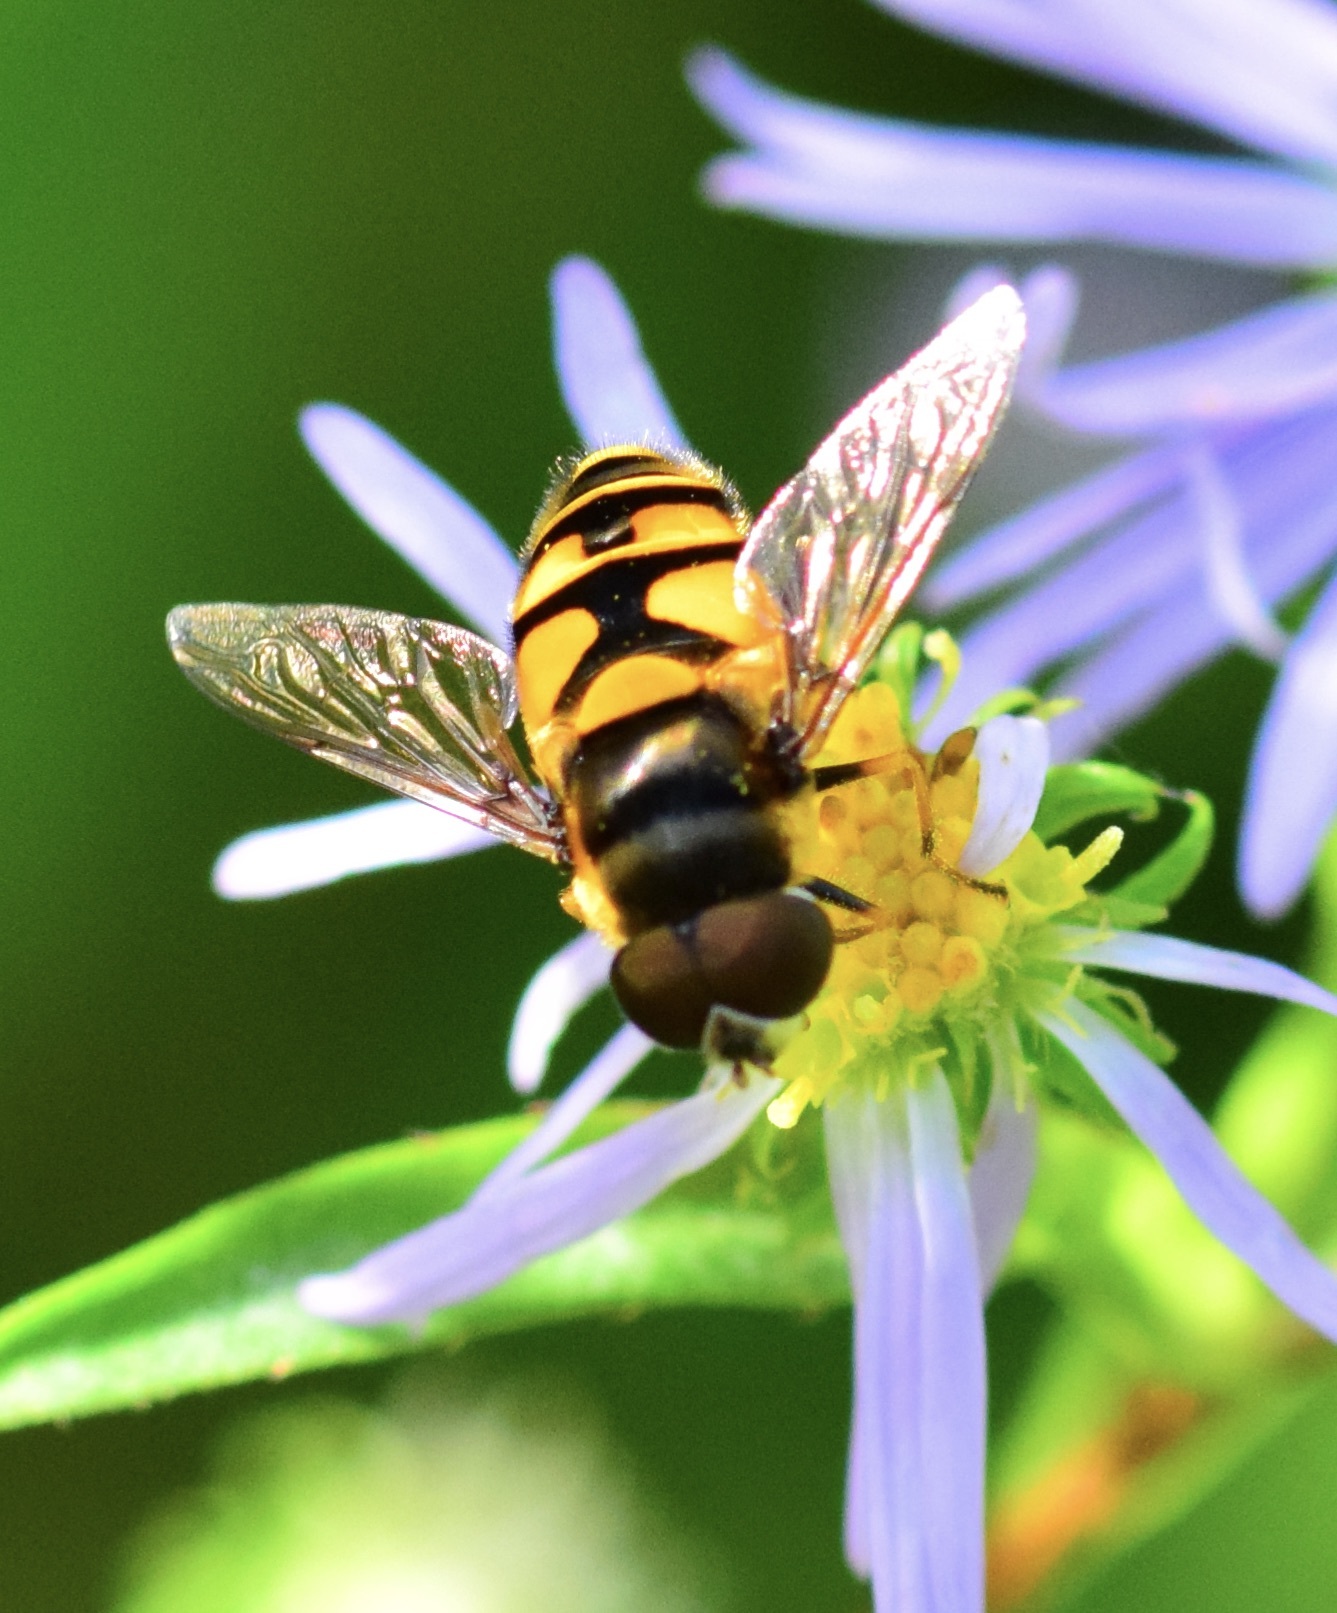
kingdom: Animalia
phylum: Arthropoda
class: Insecta
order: Diptera
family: Syrphidae
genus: Eristalis
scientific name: Eristalis transversa
